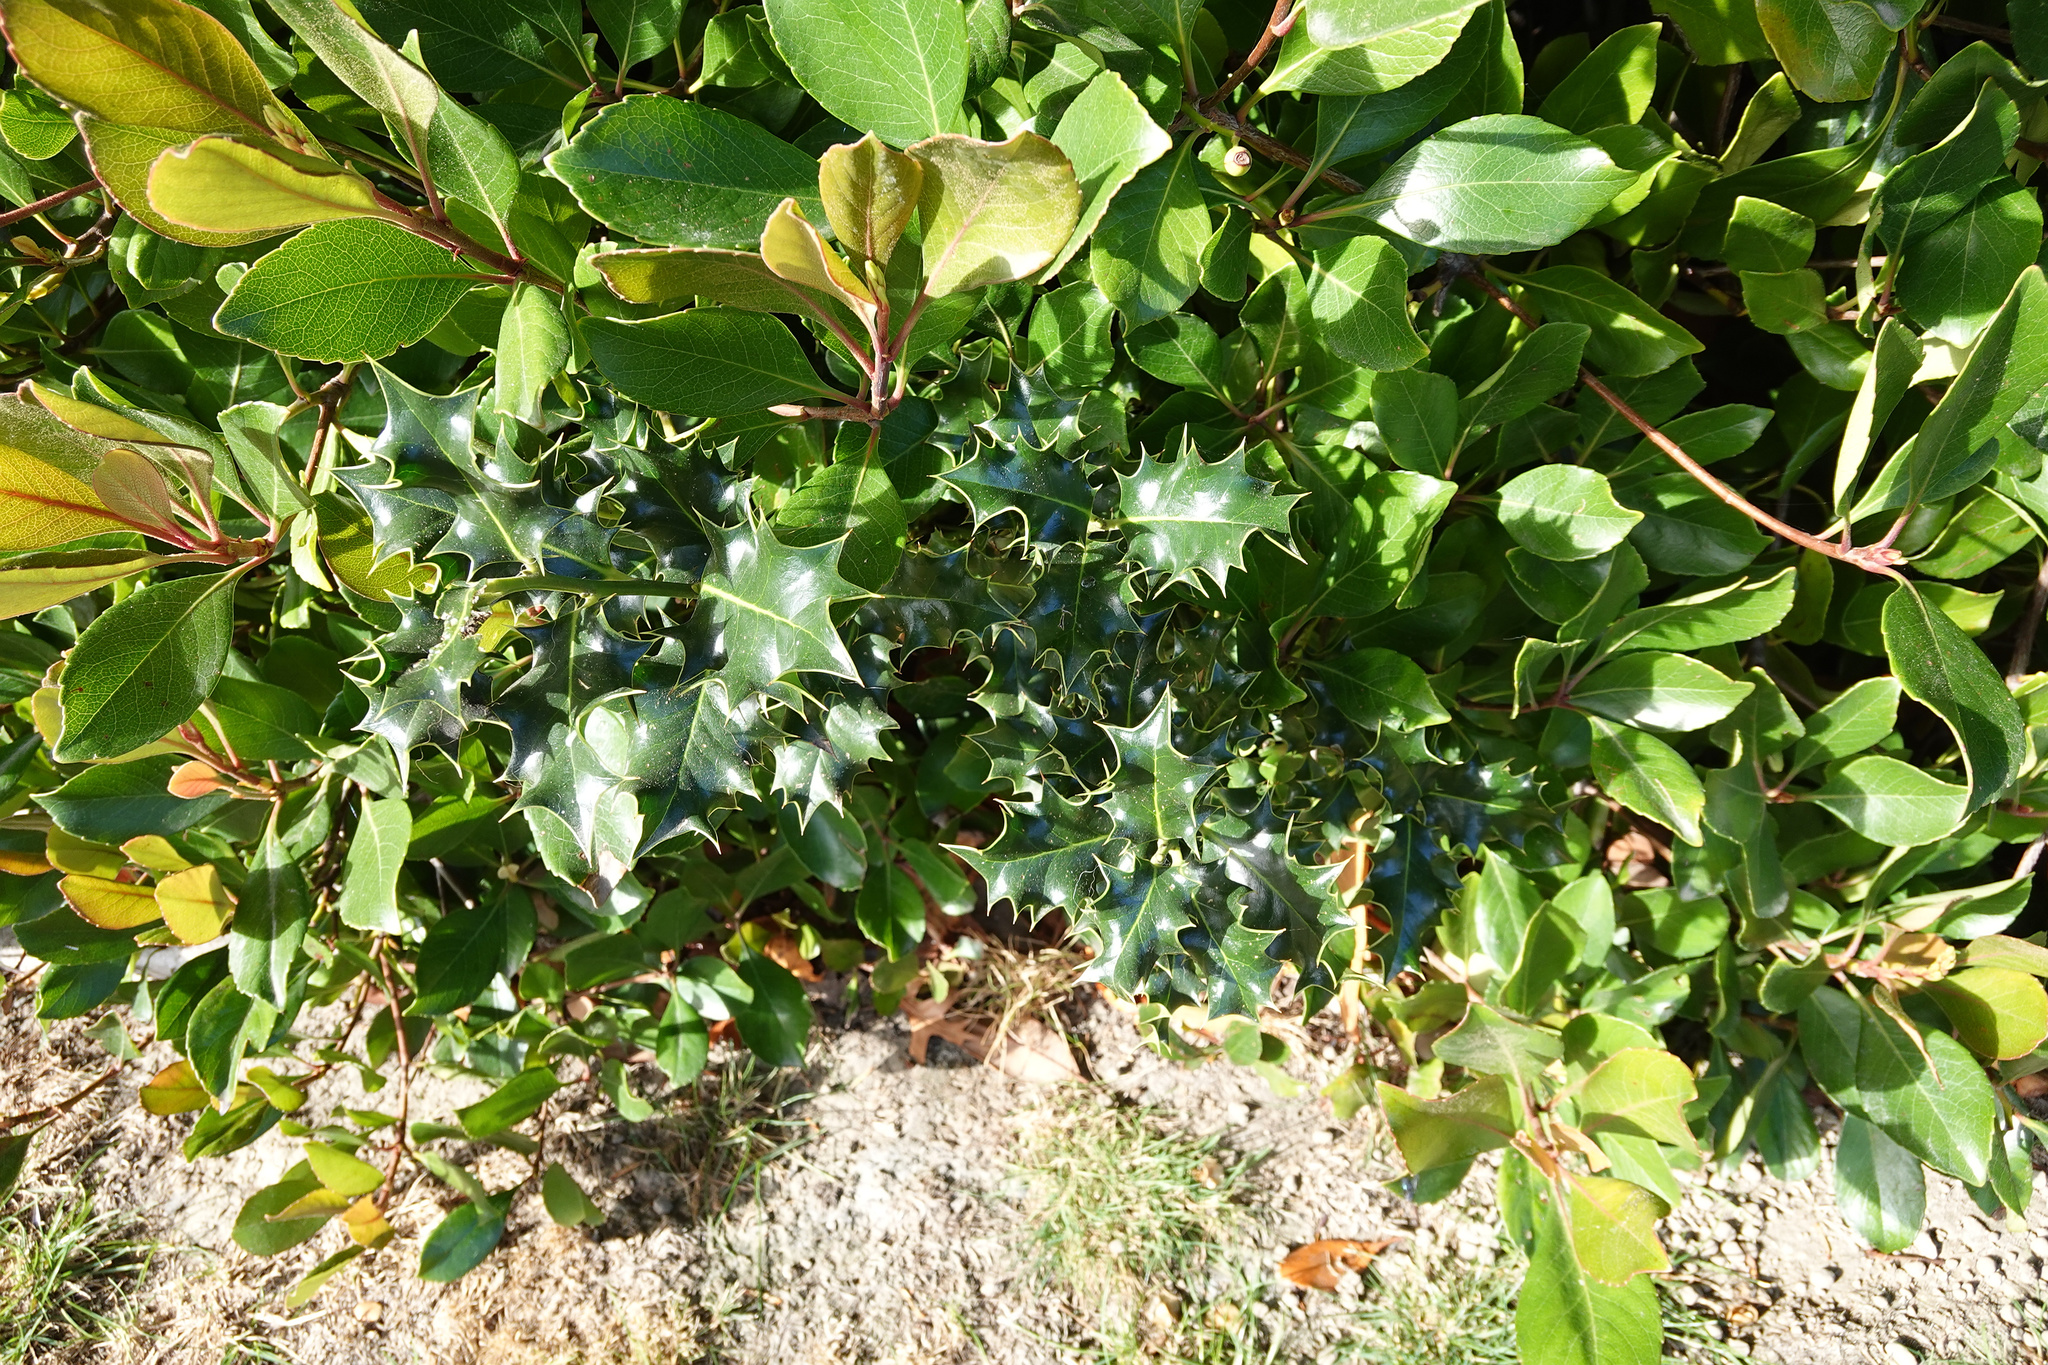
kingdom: Plantae
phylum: Tracheophyta
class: Magnoliopsida
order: Aquifoliales
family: Aquifoliaceae
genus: Ilex
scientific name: Ilex aquifolium
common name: English holly
